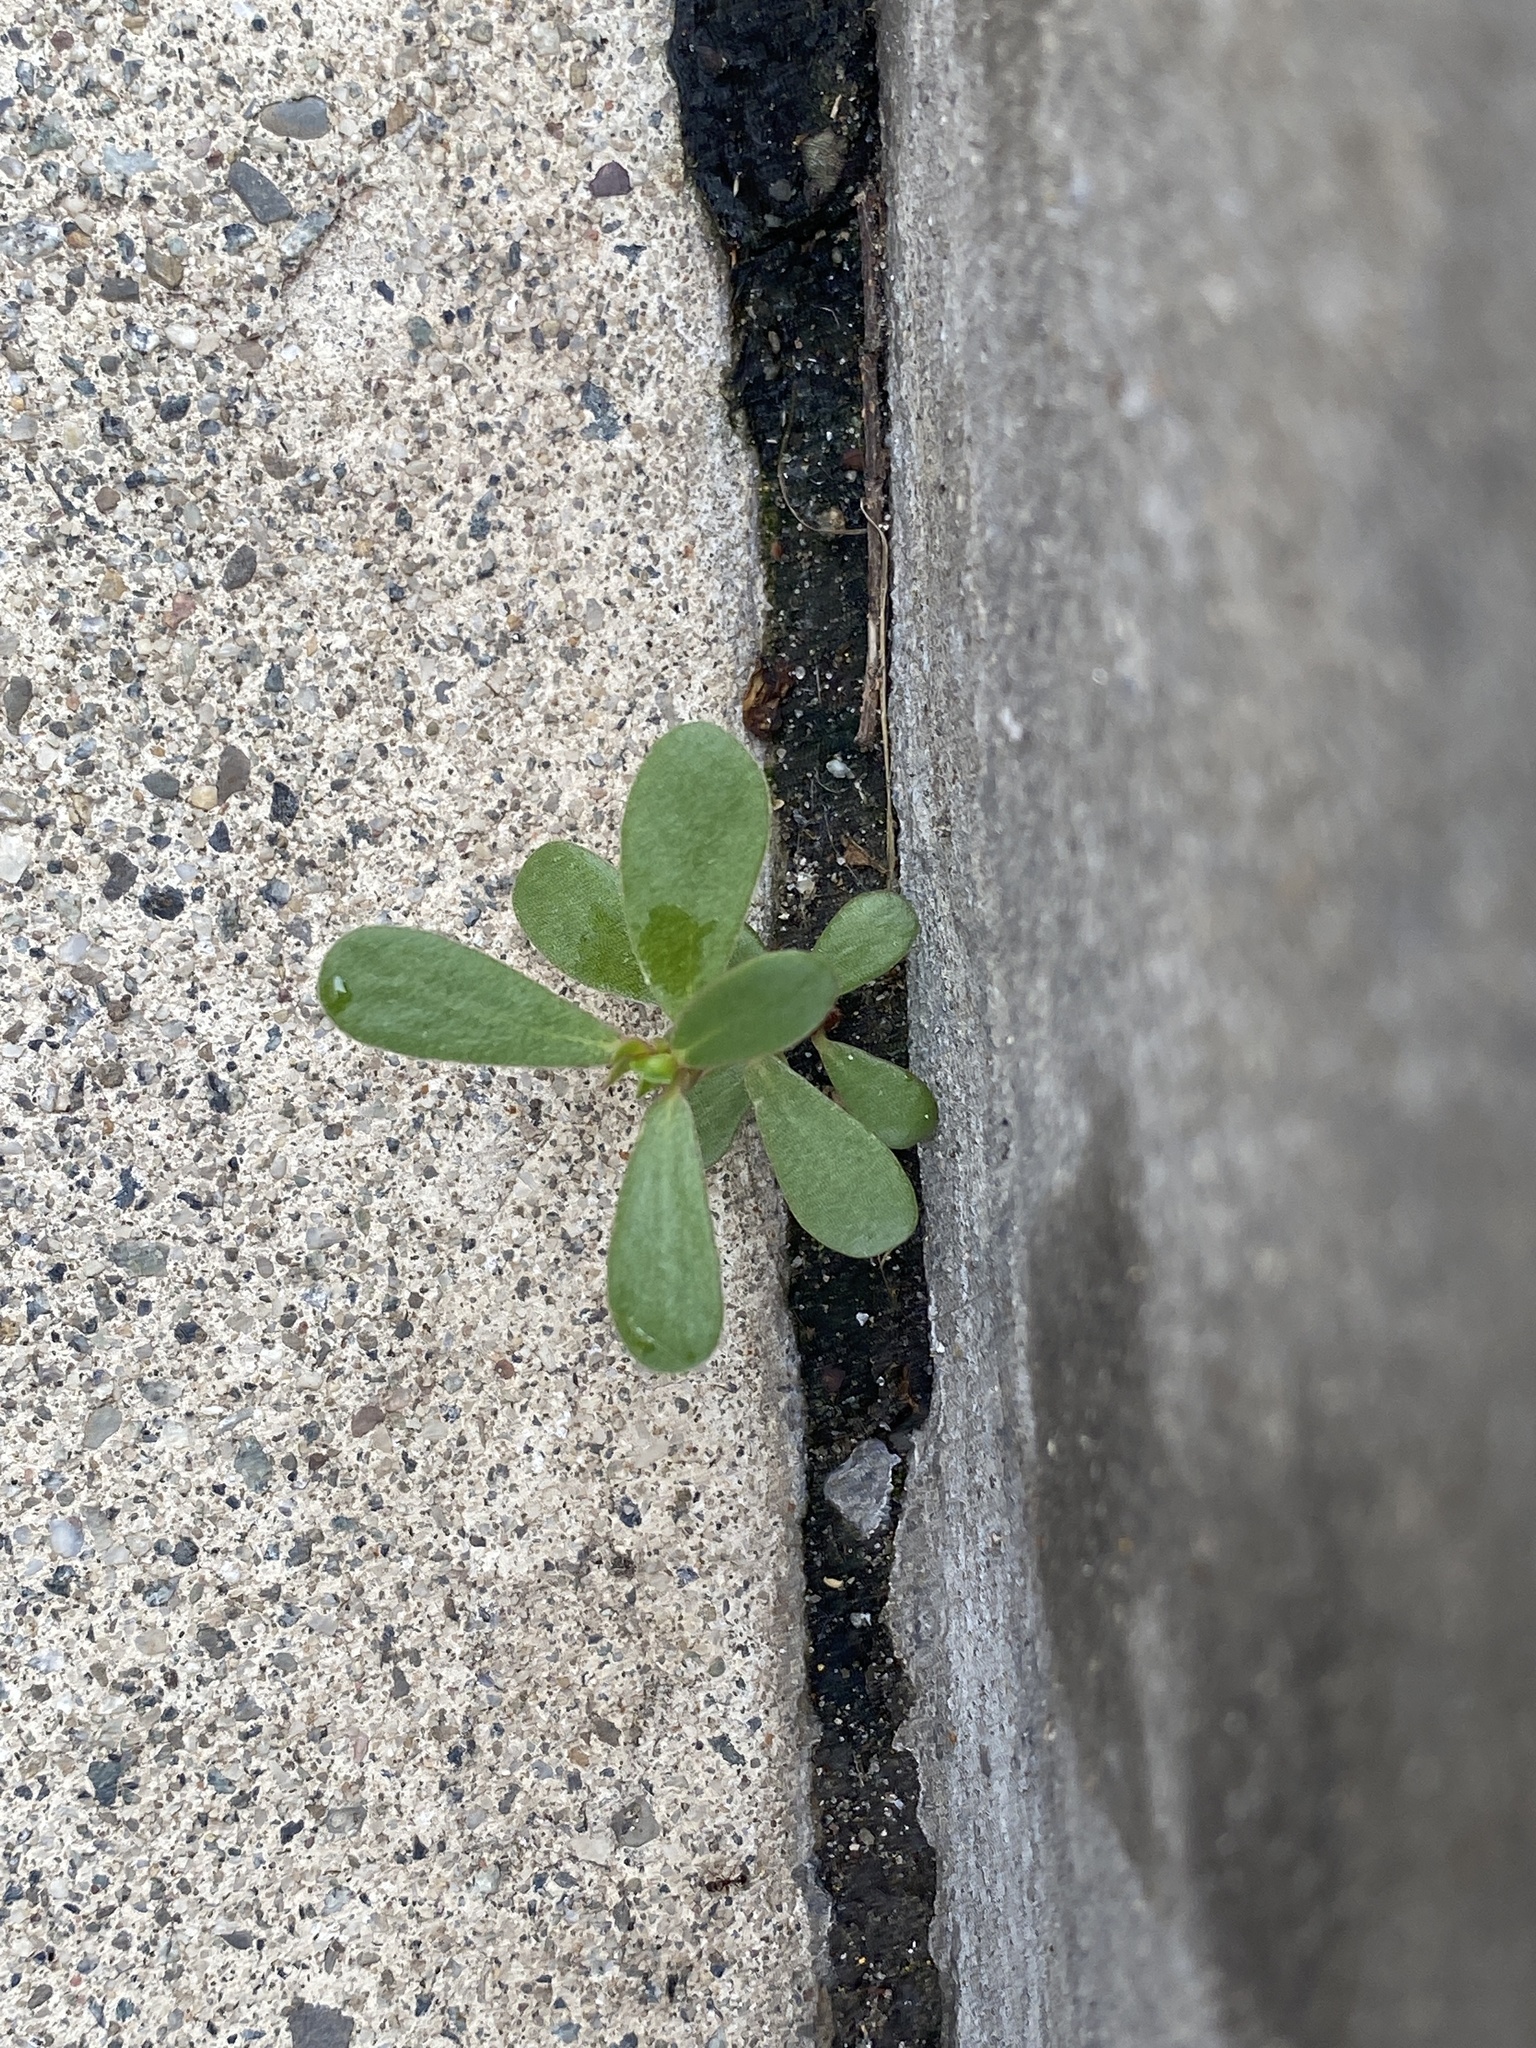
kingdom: Plantae
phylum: Tracheophyta
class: Magnoliopsida
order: Caryophyllales
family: Portulacaceae
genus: Portulaca
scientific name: Portulaca oleracea
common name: Common purslane
